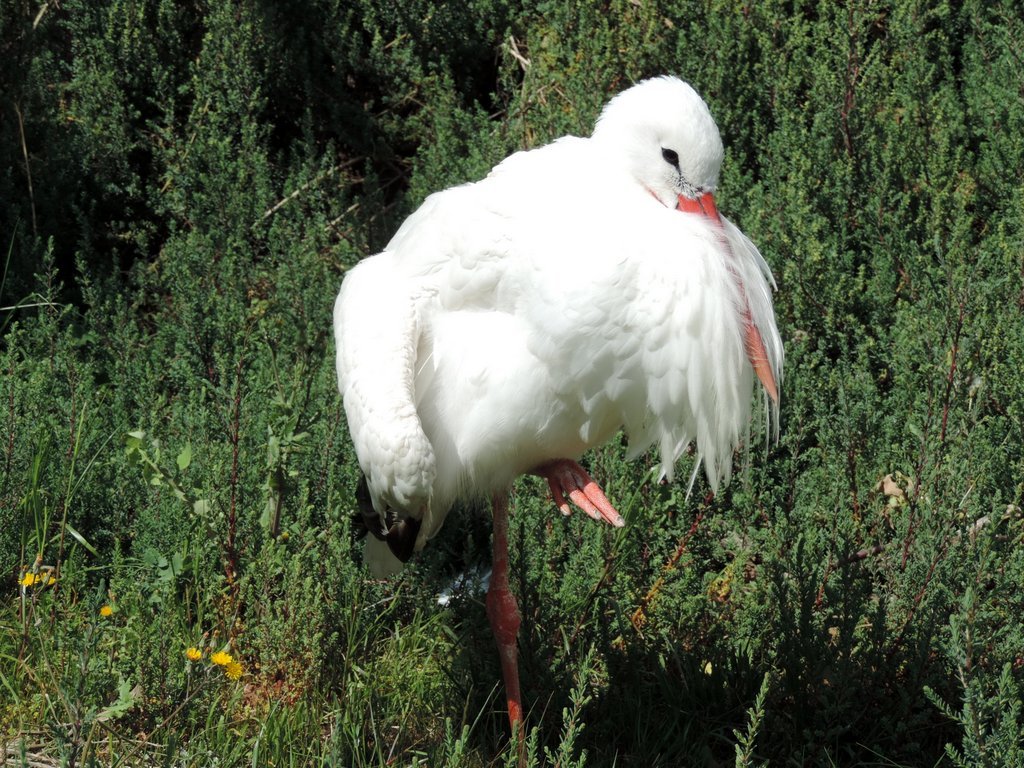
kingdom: Animalia
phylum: Chordata
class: Aves
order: Ciconiiformes
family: Ciconiidae
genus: Ciconia
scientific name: Ciconia ciconia
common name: White stork
